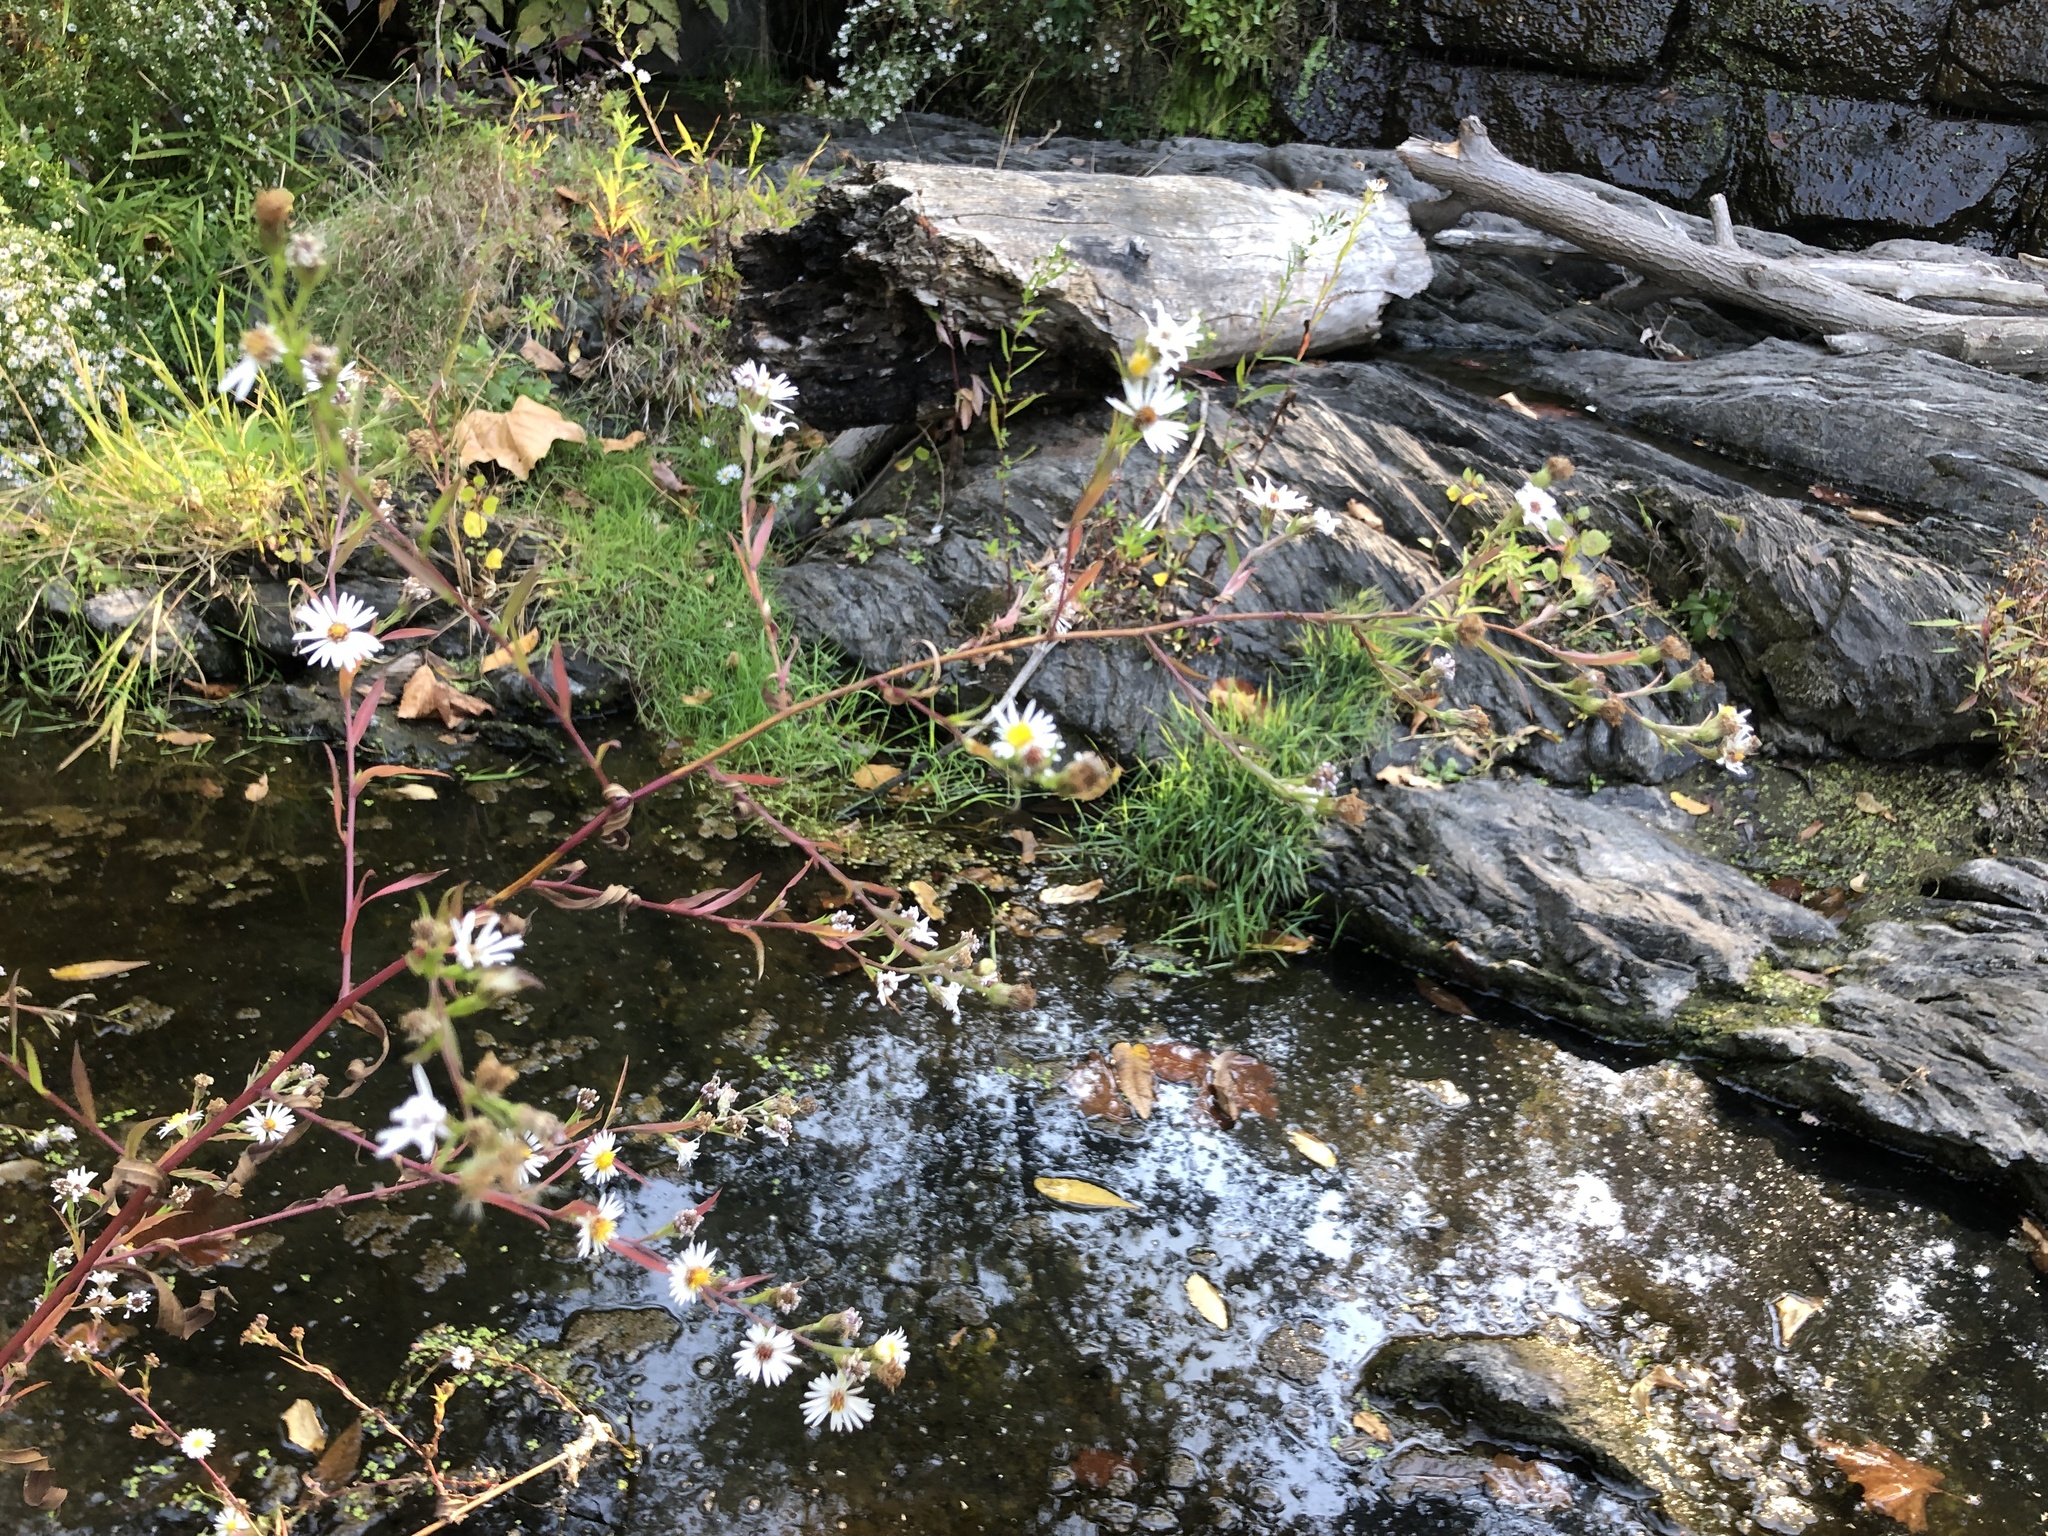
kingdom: Plantae
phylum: Tracheophyta
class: Magnoliopsida
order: Asterales
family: Asteraceae
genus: Symphyotrichum
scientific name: Symphyotrichum lanceolatum
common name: Panicled aster
